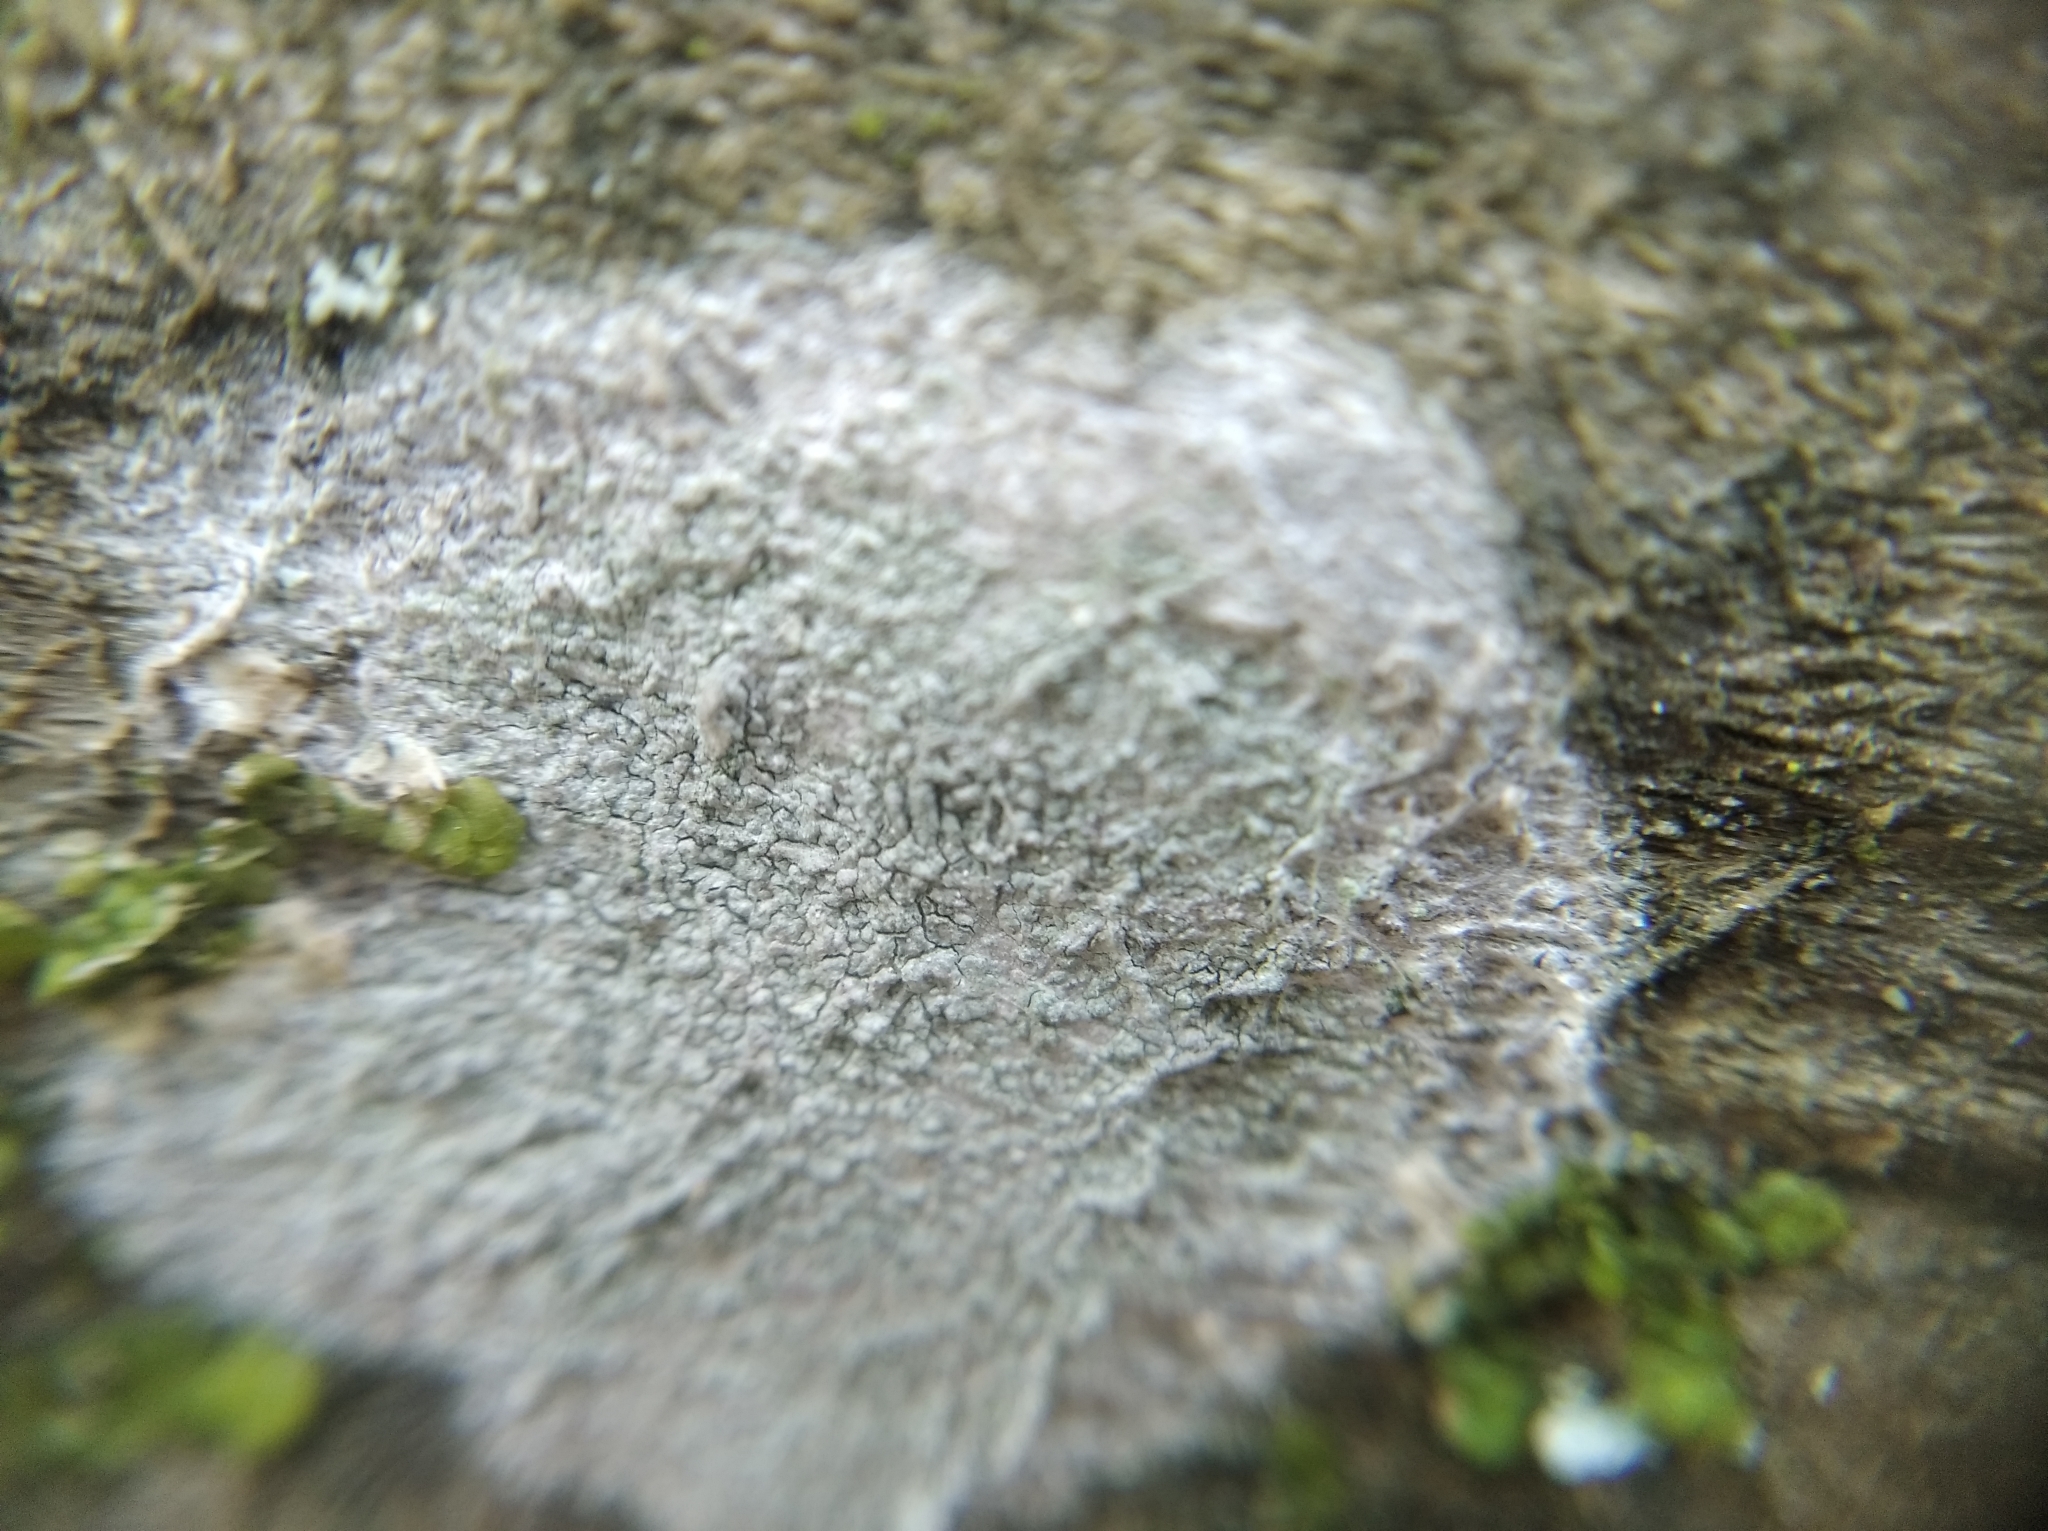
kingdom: Fungi
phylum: Ascomycota
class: Lecanoromycetes
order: Ostropales
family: Phlyctidaceae
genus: Phlyctis
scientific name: Phlyctis argena
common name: Whitewash lichen
